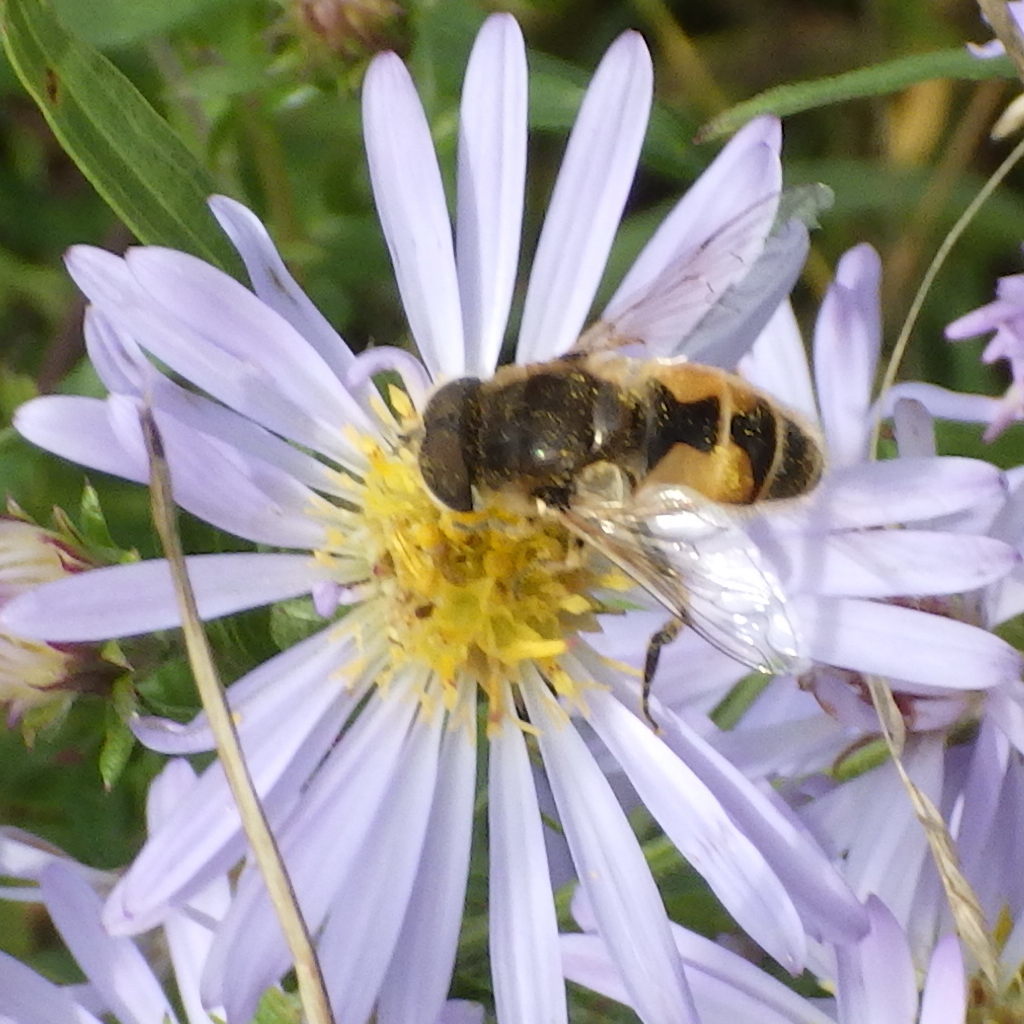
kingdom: Animalia
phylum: Arthropoda
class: Insecta
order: Diptera
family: Syrphidae
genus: Eristalis
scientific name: Eristalis arbustorum
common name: Hover fly
